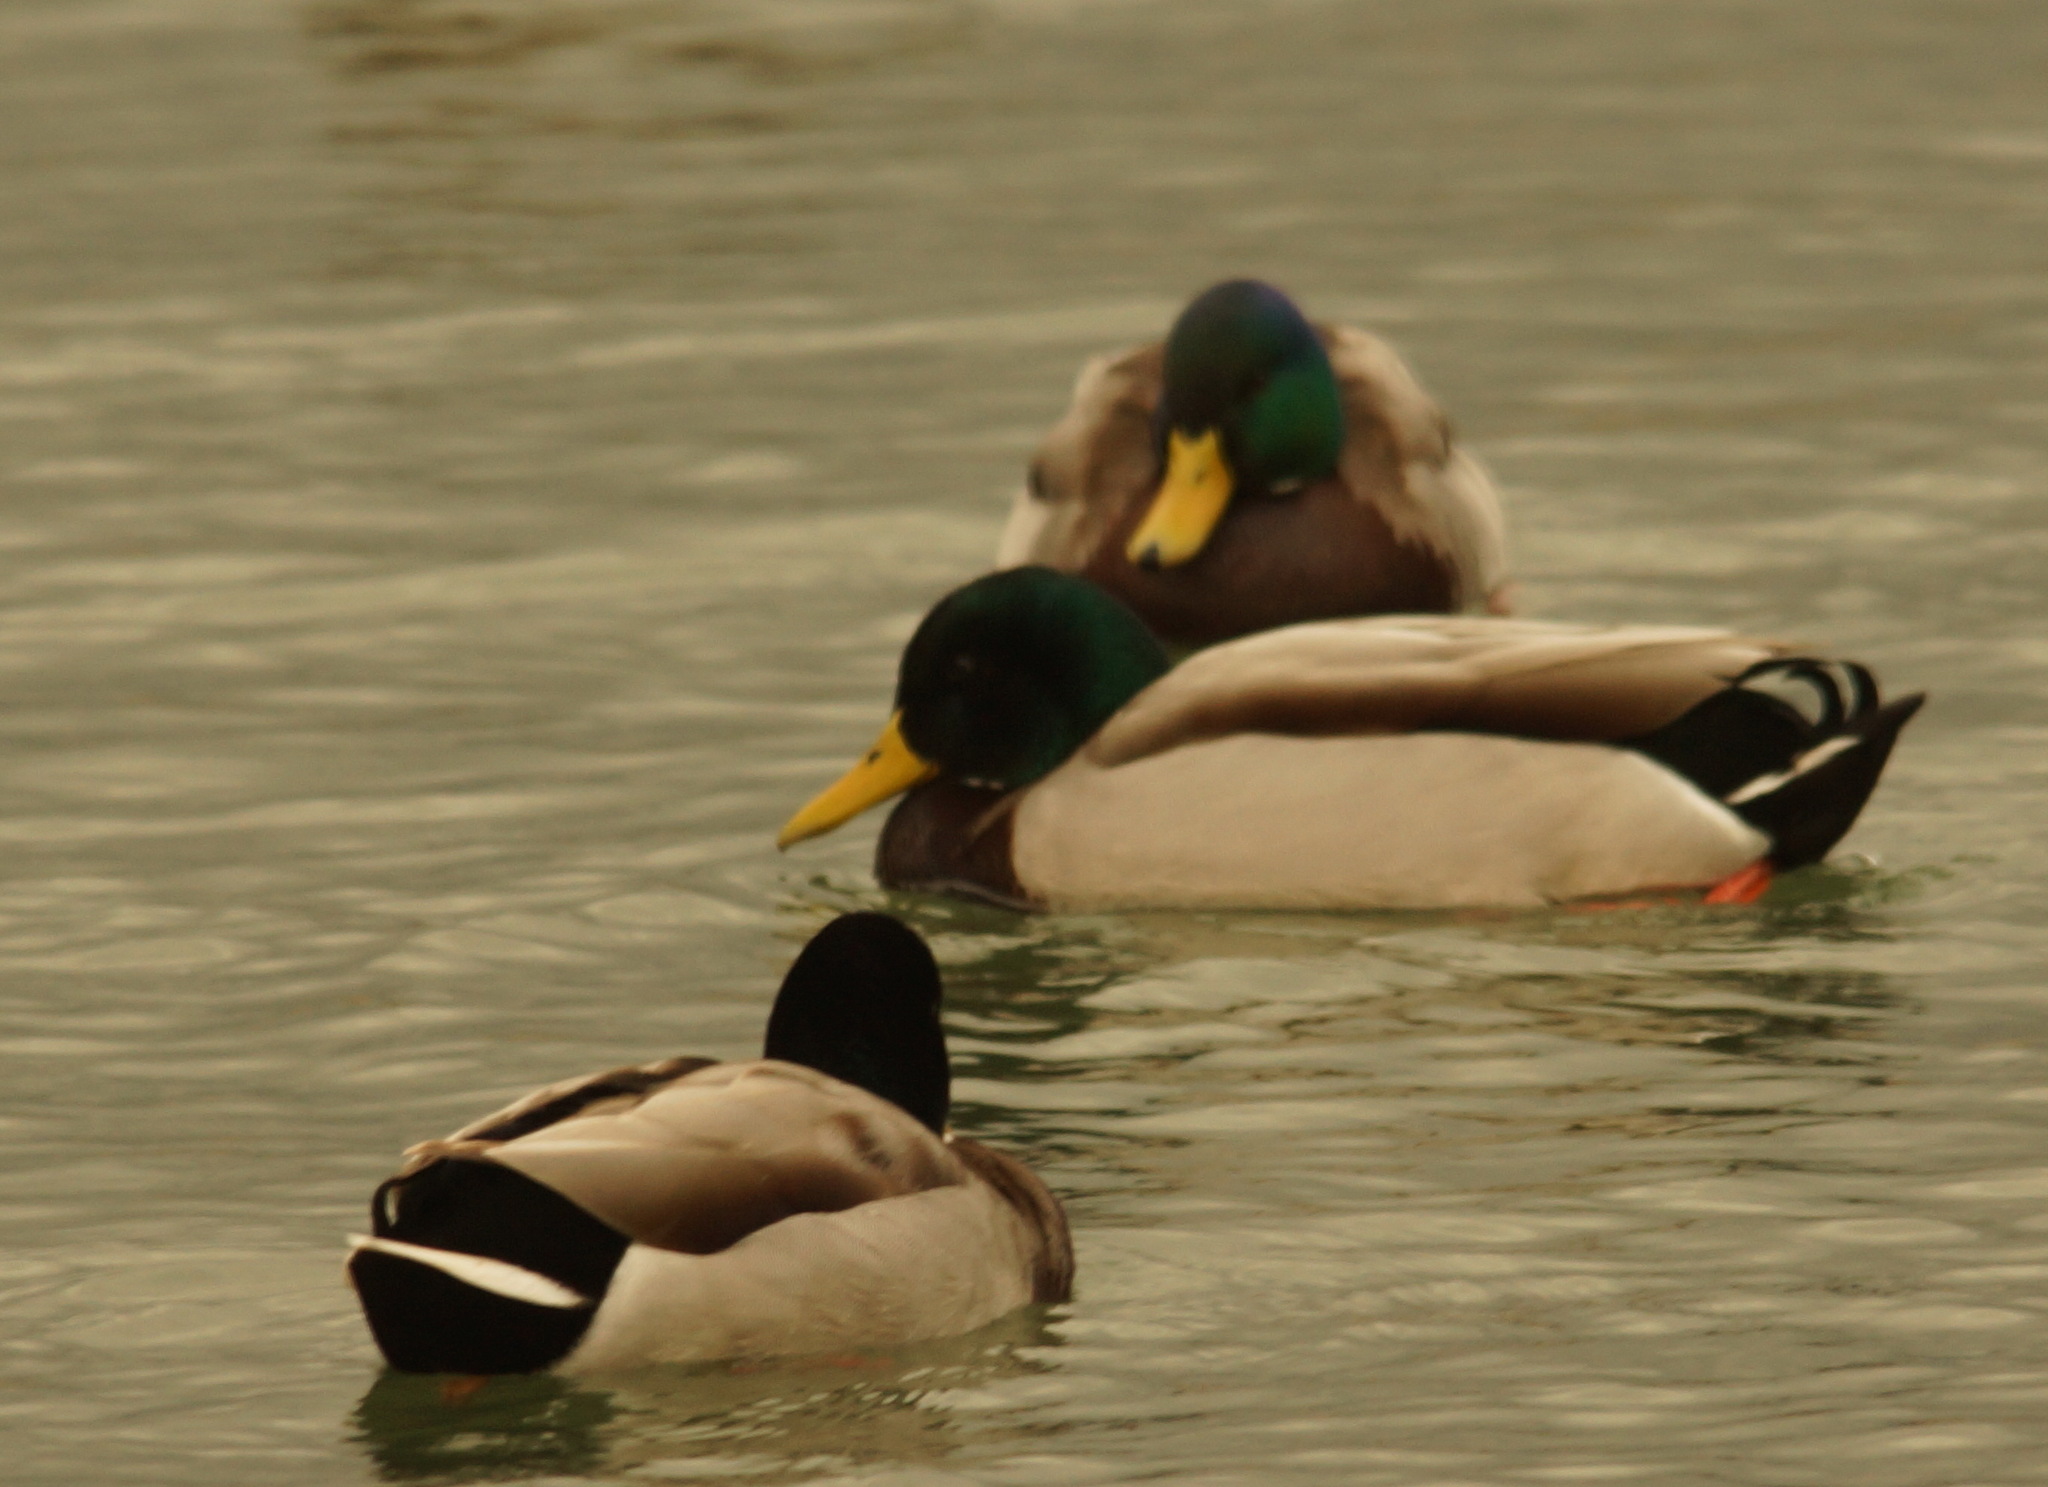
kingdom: Animalia
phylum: Chordata
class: Aves
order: Anseriformes
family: Anatidae
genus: Anas
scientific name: Anas platyrhynchos
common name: Mallard
